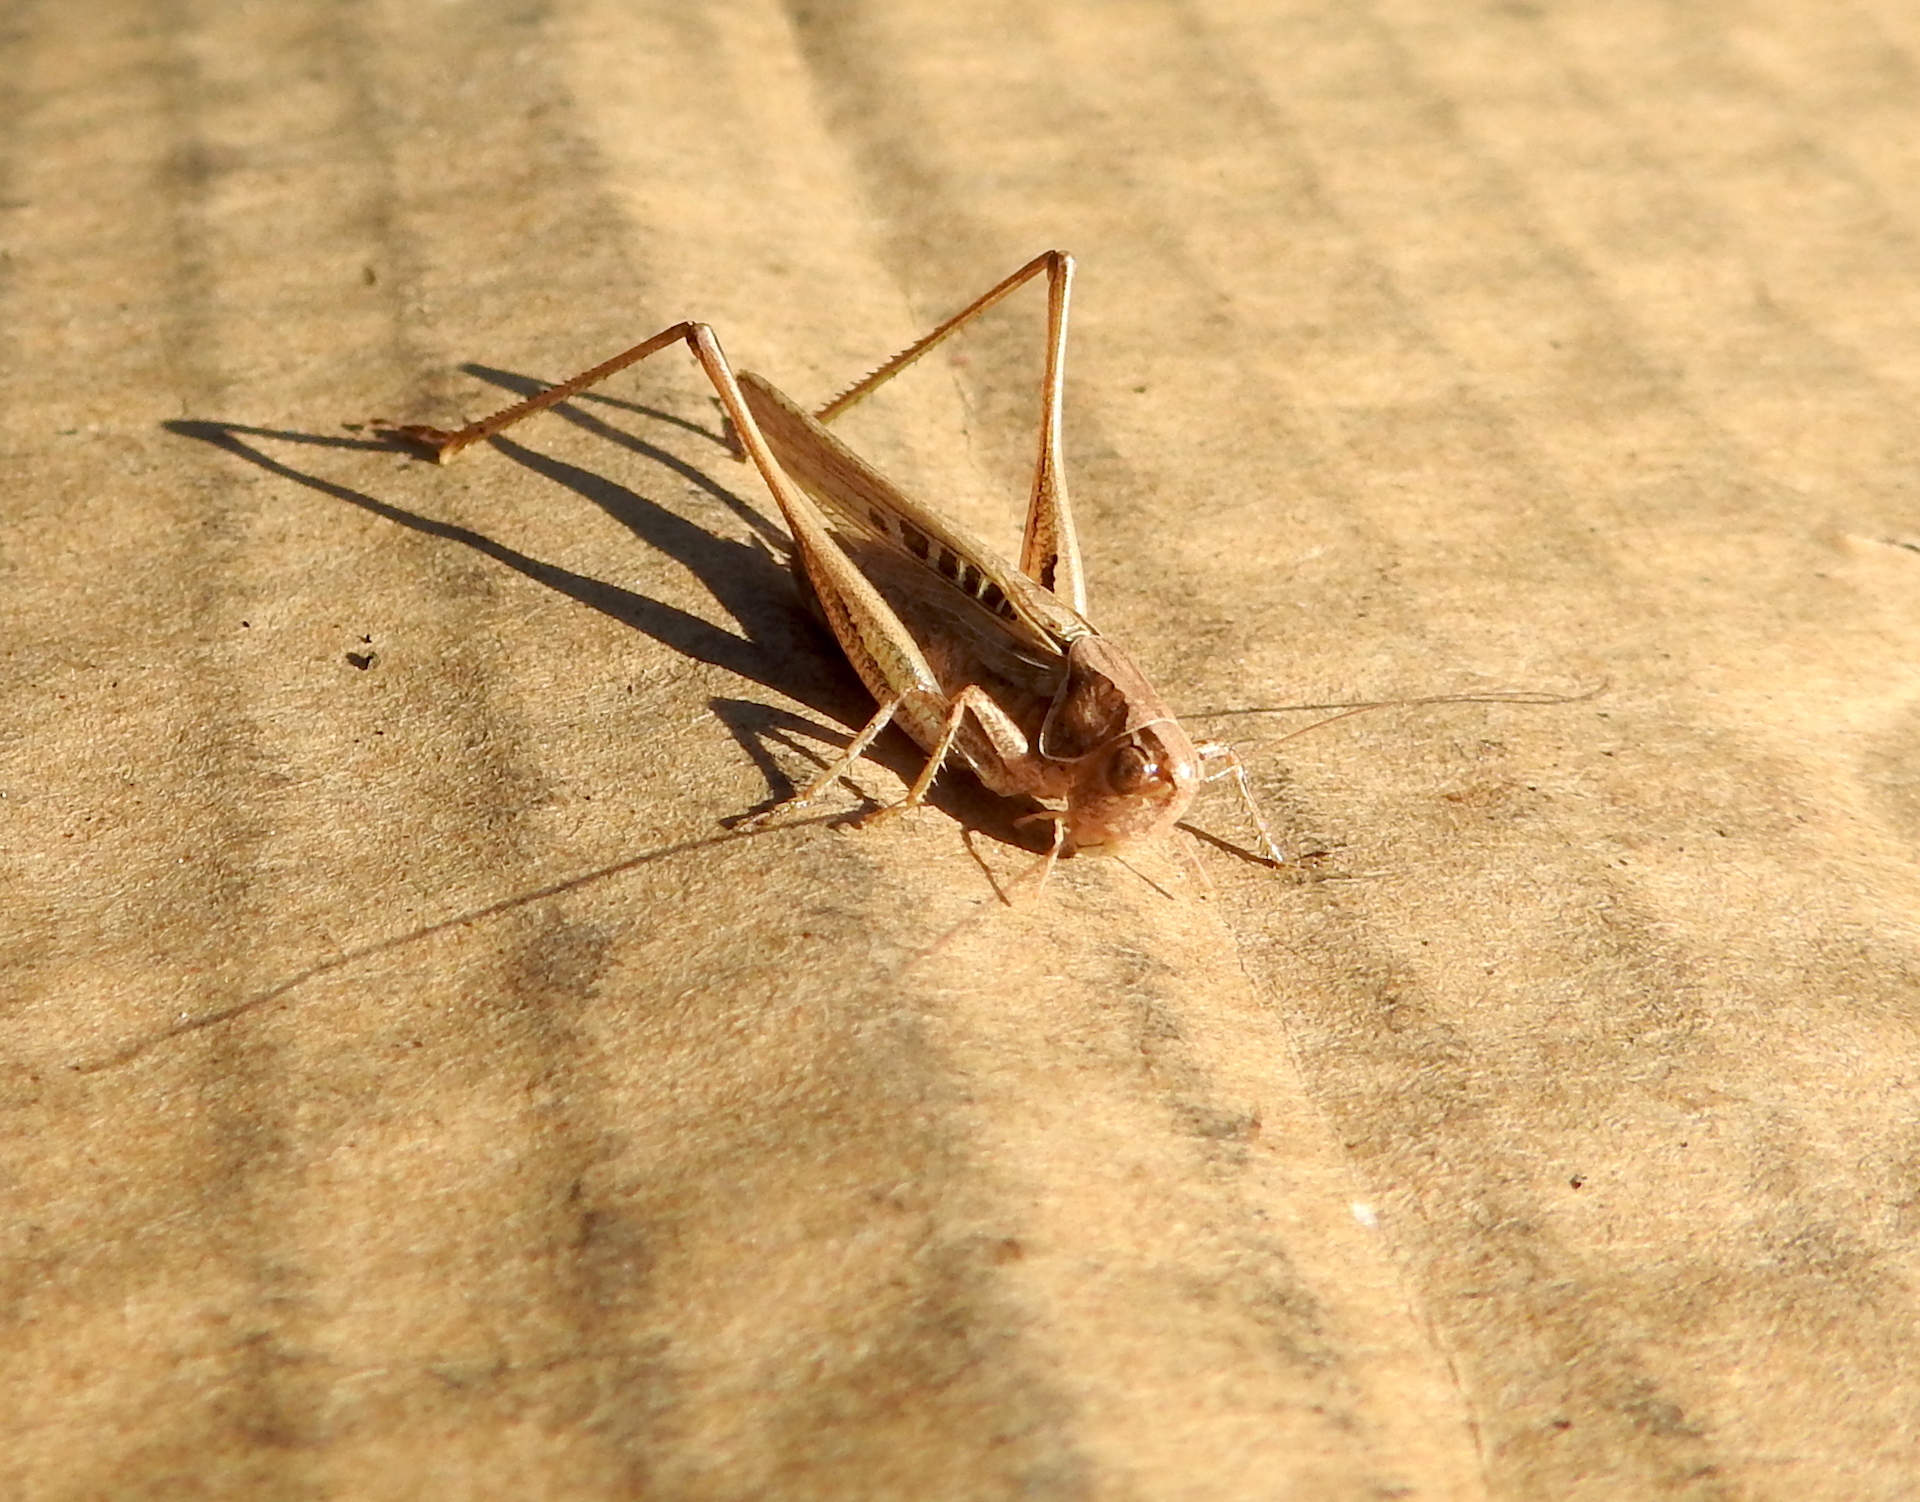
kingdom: Animalia
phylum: Arthropoda
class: Insecta
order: Orthoptera
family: Tettigoniidae
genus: Tessellana
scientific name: Tessellana tessellata
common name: Grasshopper
